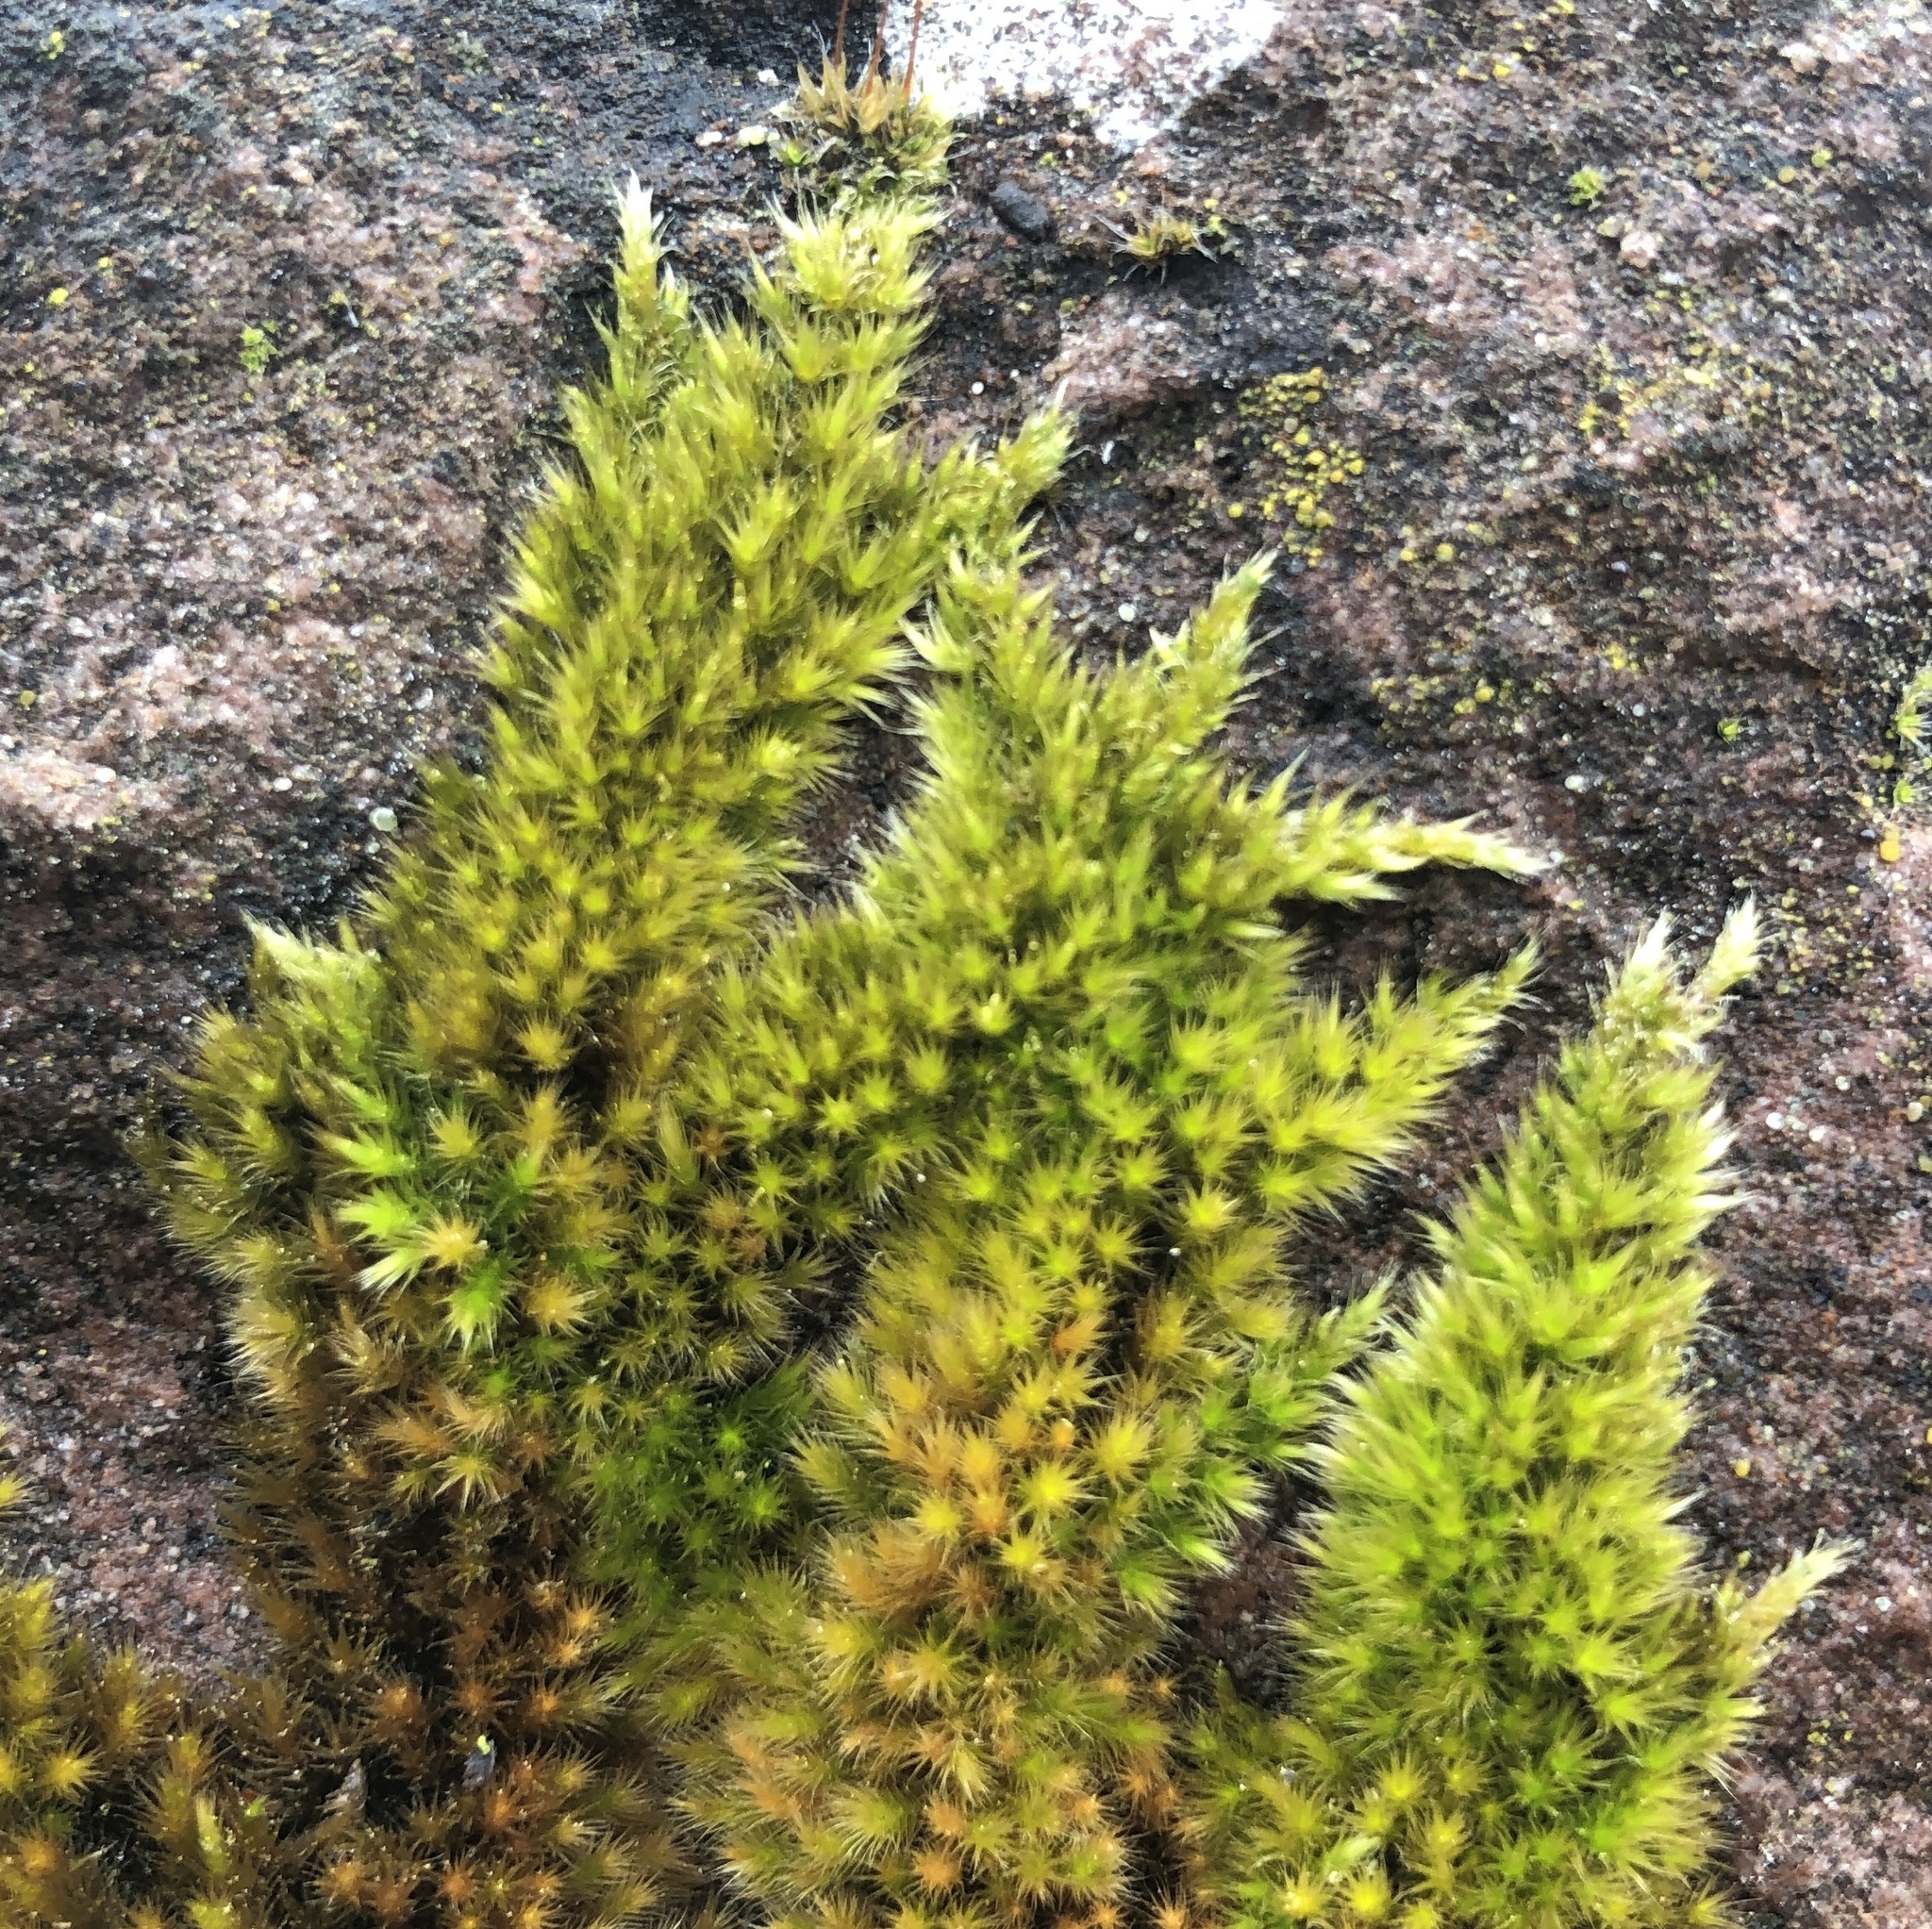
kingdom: Plantae
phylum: Bryophyta
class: Bryopsida
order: Hypnales
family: Brachytheciaceae
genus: Homalothecium
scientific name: Homalothecium sericeum
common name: Silky wall feather-moss
